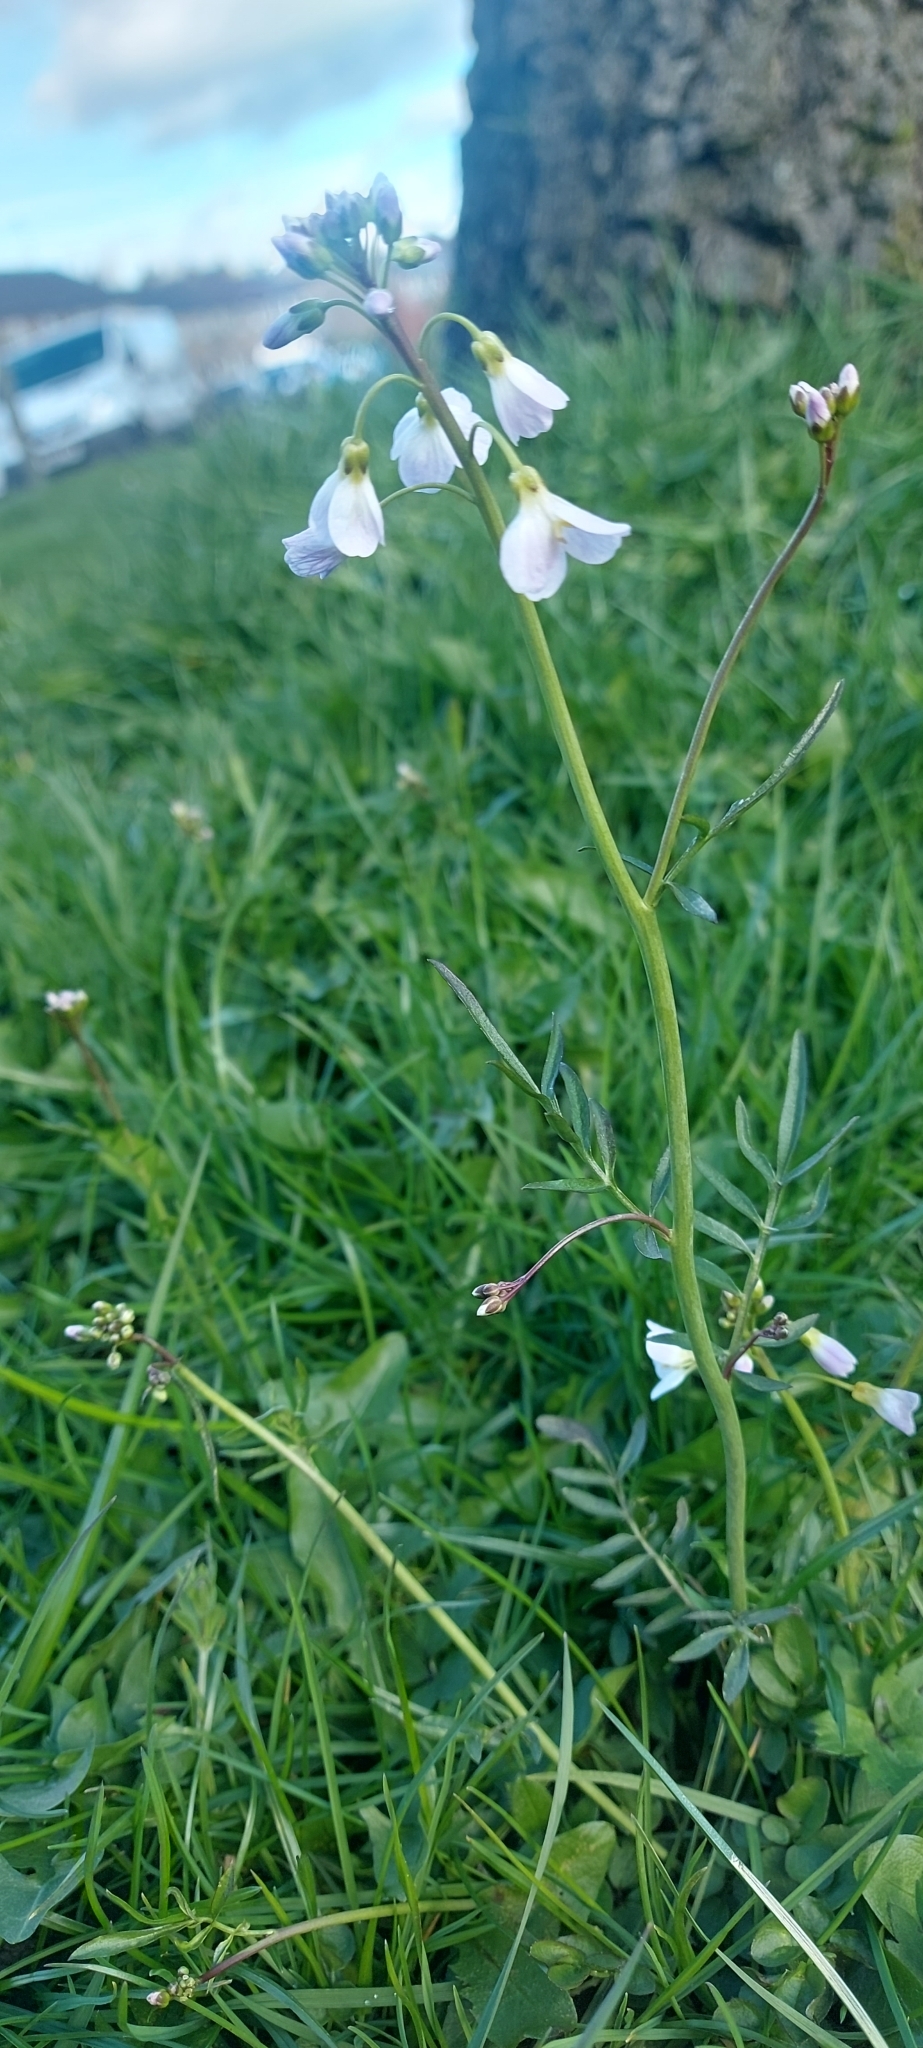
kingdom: Plantae
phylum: Tracheophyta
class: Magnoliopsida
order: Brassicales
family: Brassicaceae
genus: Cardamine
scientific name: Cardamine pratensis
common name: Cuckoo flower
